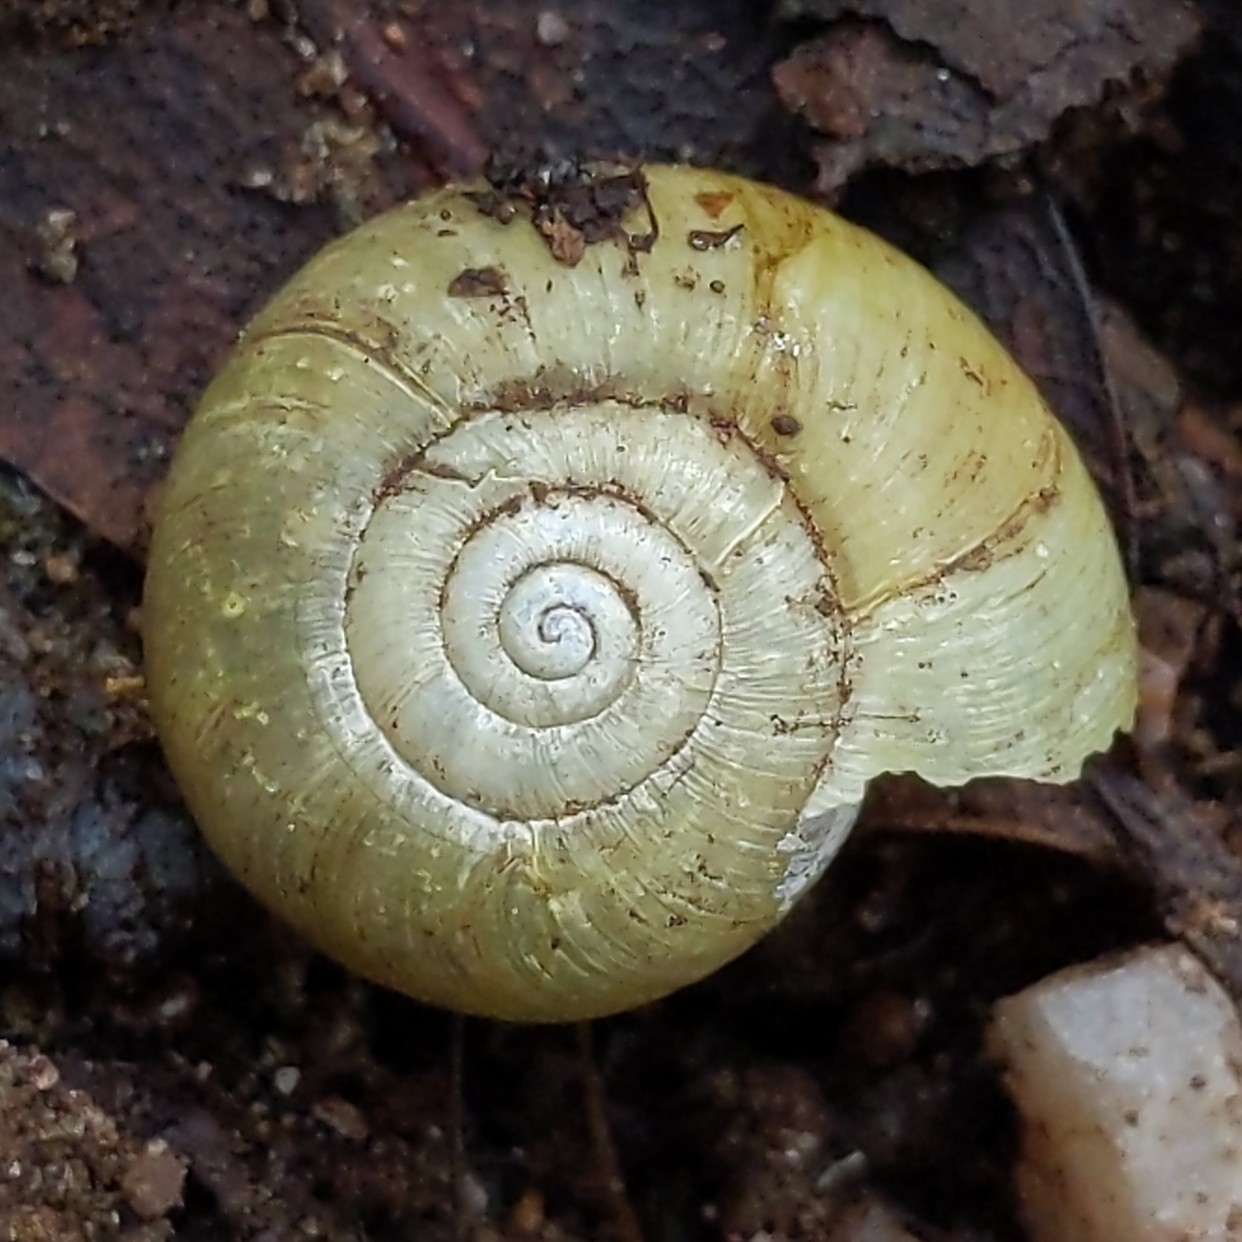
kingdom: Animalia
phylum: Mollusca
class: Gastropoda
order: Stylommatophora
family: Haplotrematidae
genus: Haplotrema
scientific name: Haplotrema minimum
